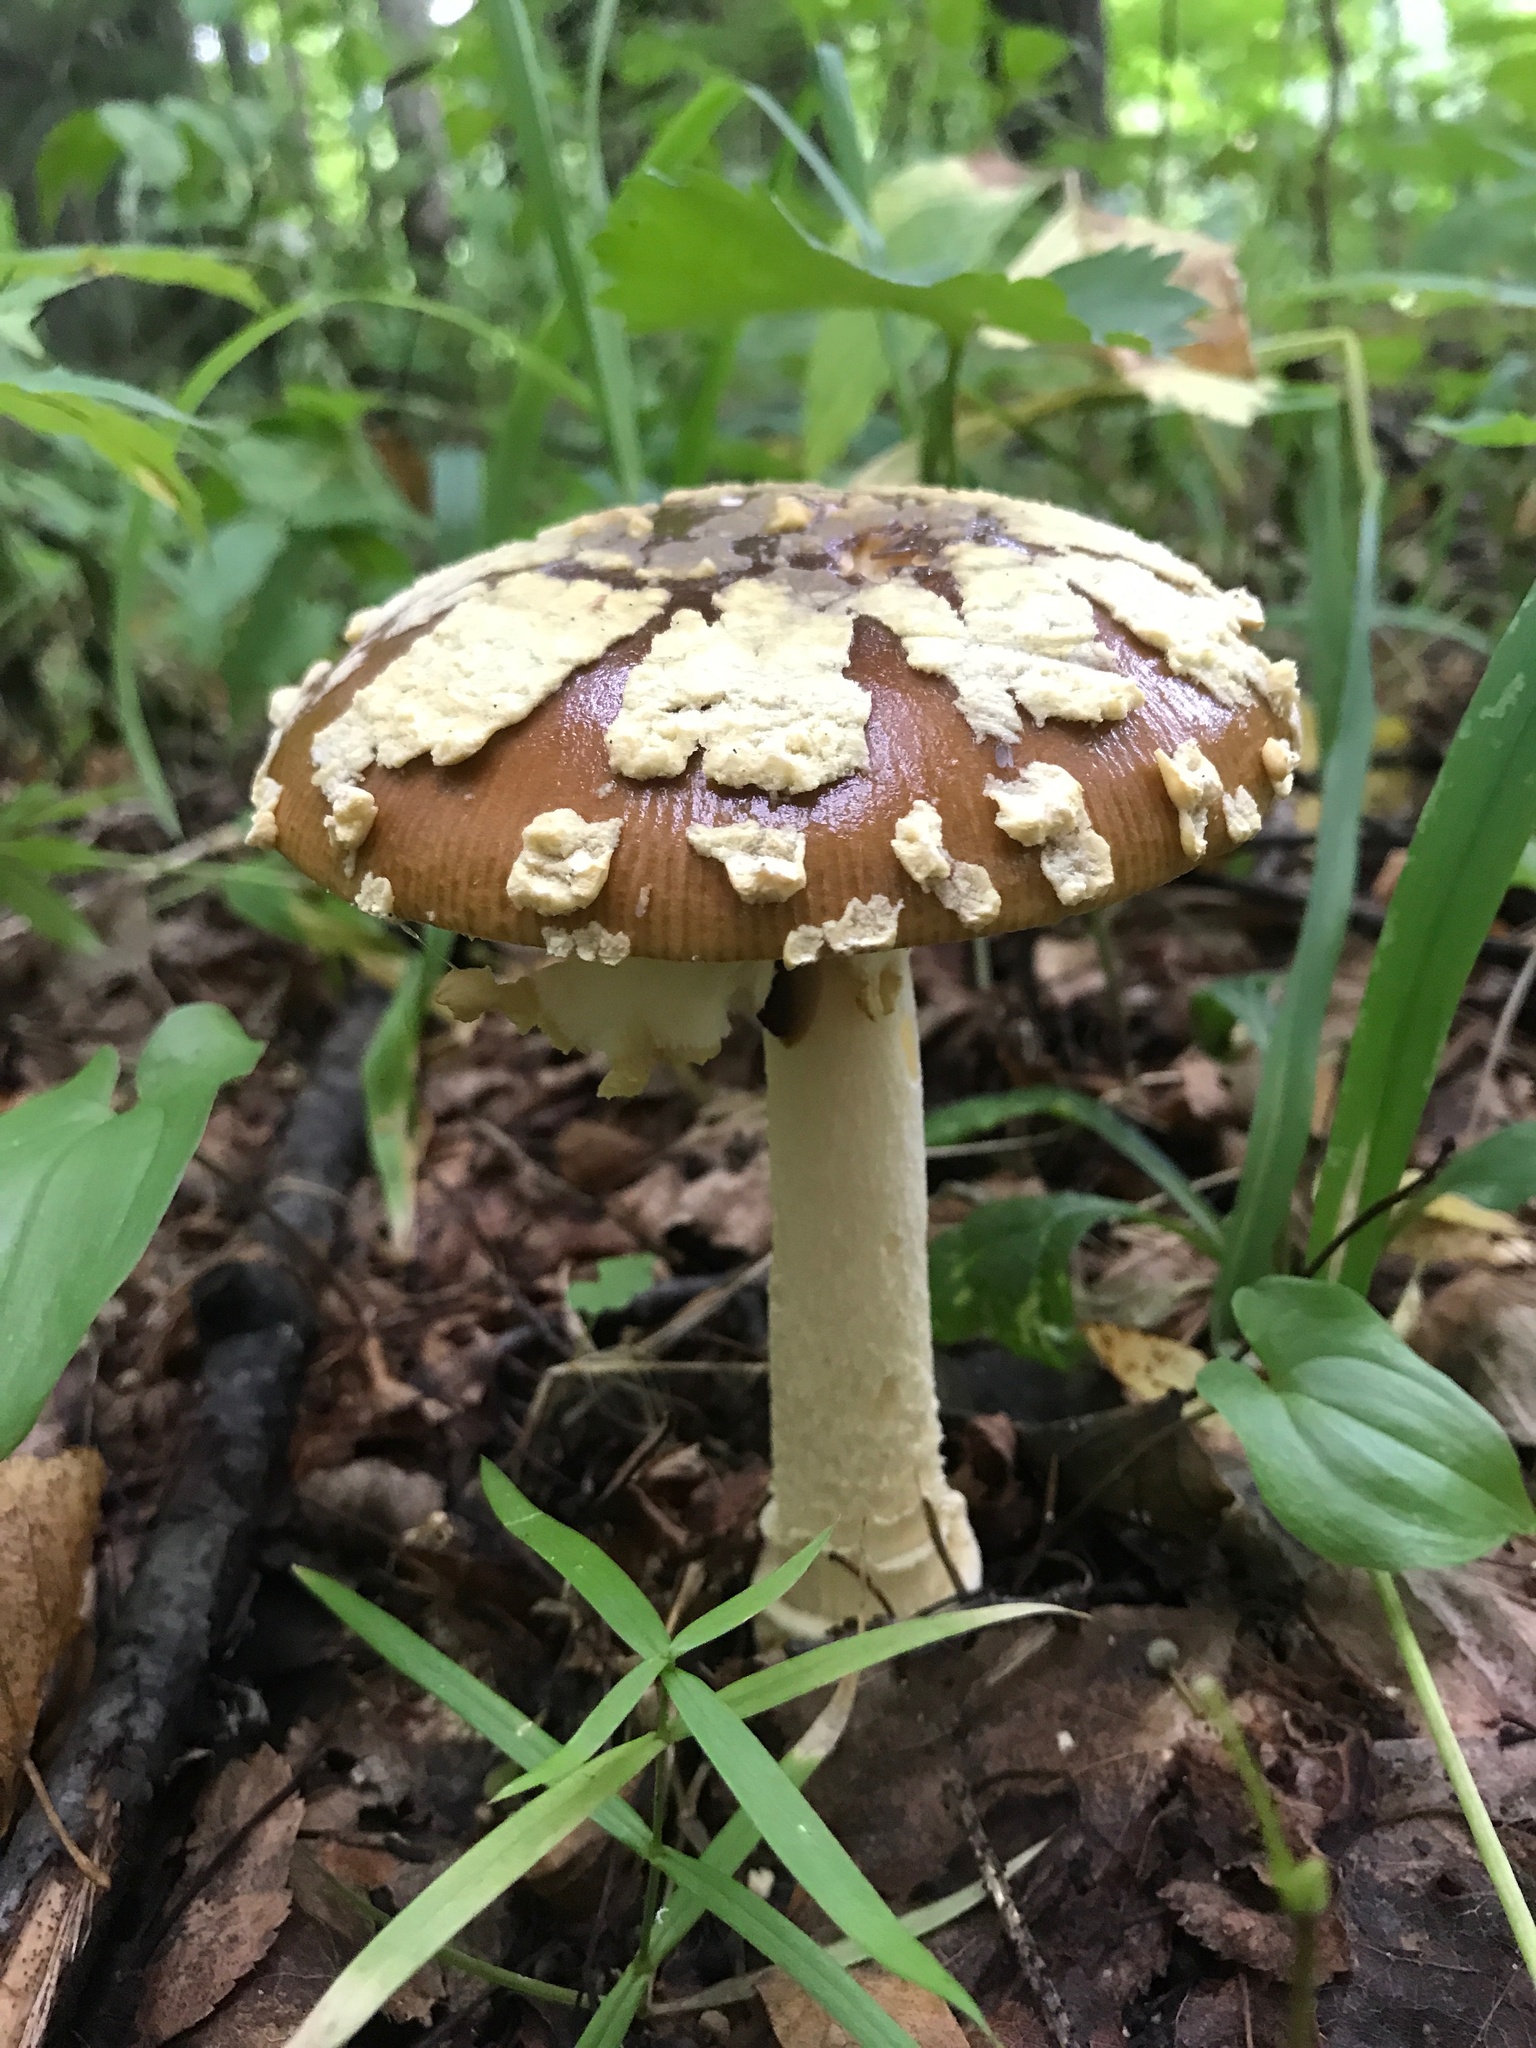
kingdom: Fungi
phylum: Basidiomycota
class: Agaricomycetes
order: Agaricales
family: Amanitaceae
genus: Amanita
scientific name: Amanita regalis
